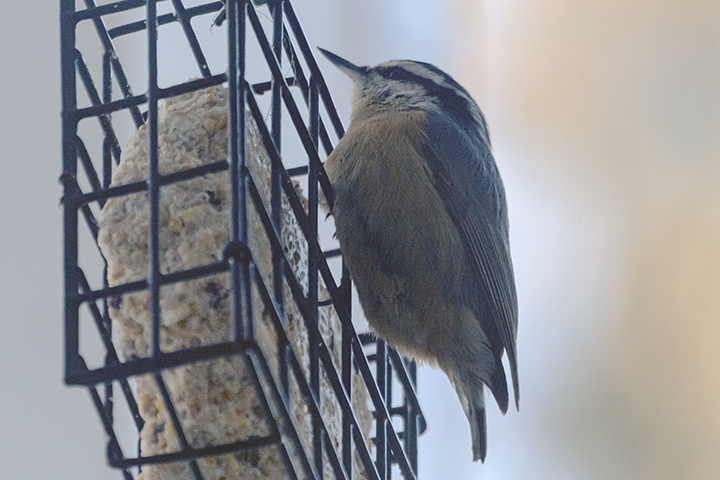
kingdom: Animalia
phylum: Chordata
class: Aves
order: Passeriformes
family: Sittidae
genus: Sitta
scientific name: Sitta canadensis
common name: Red-breasted nuthatch
